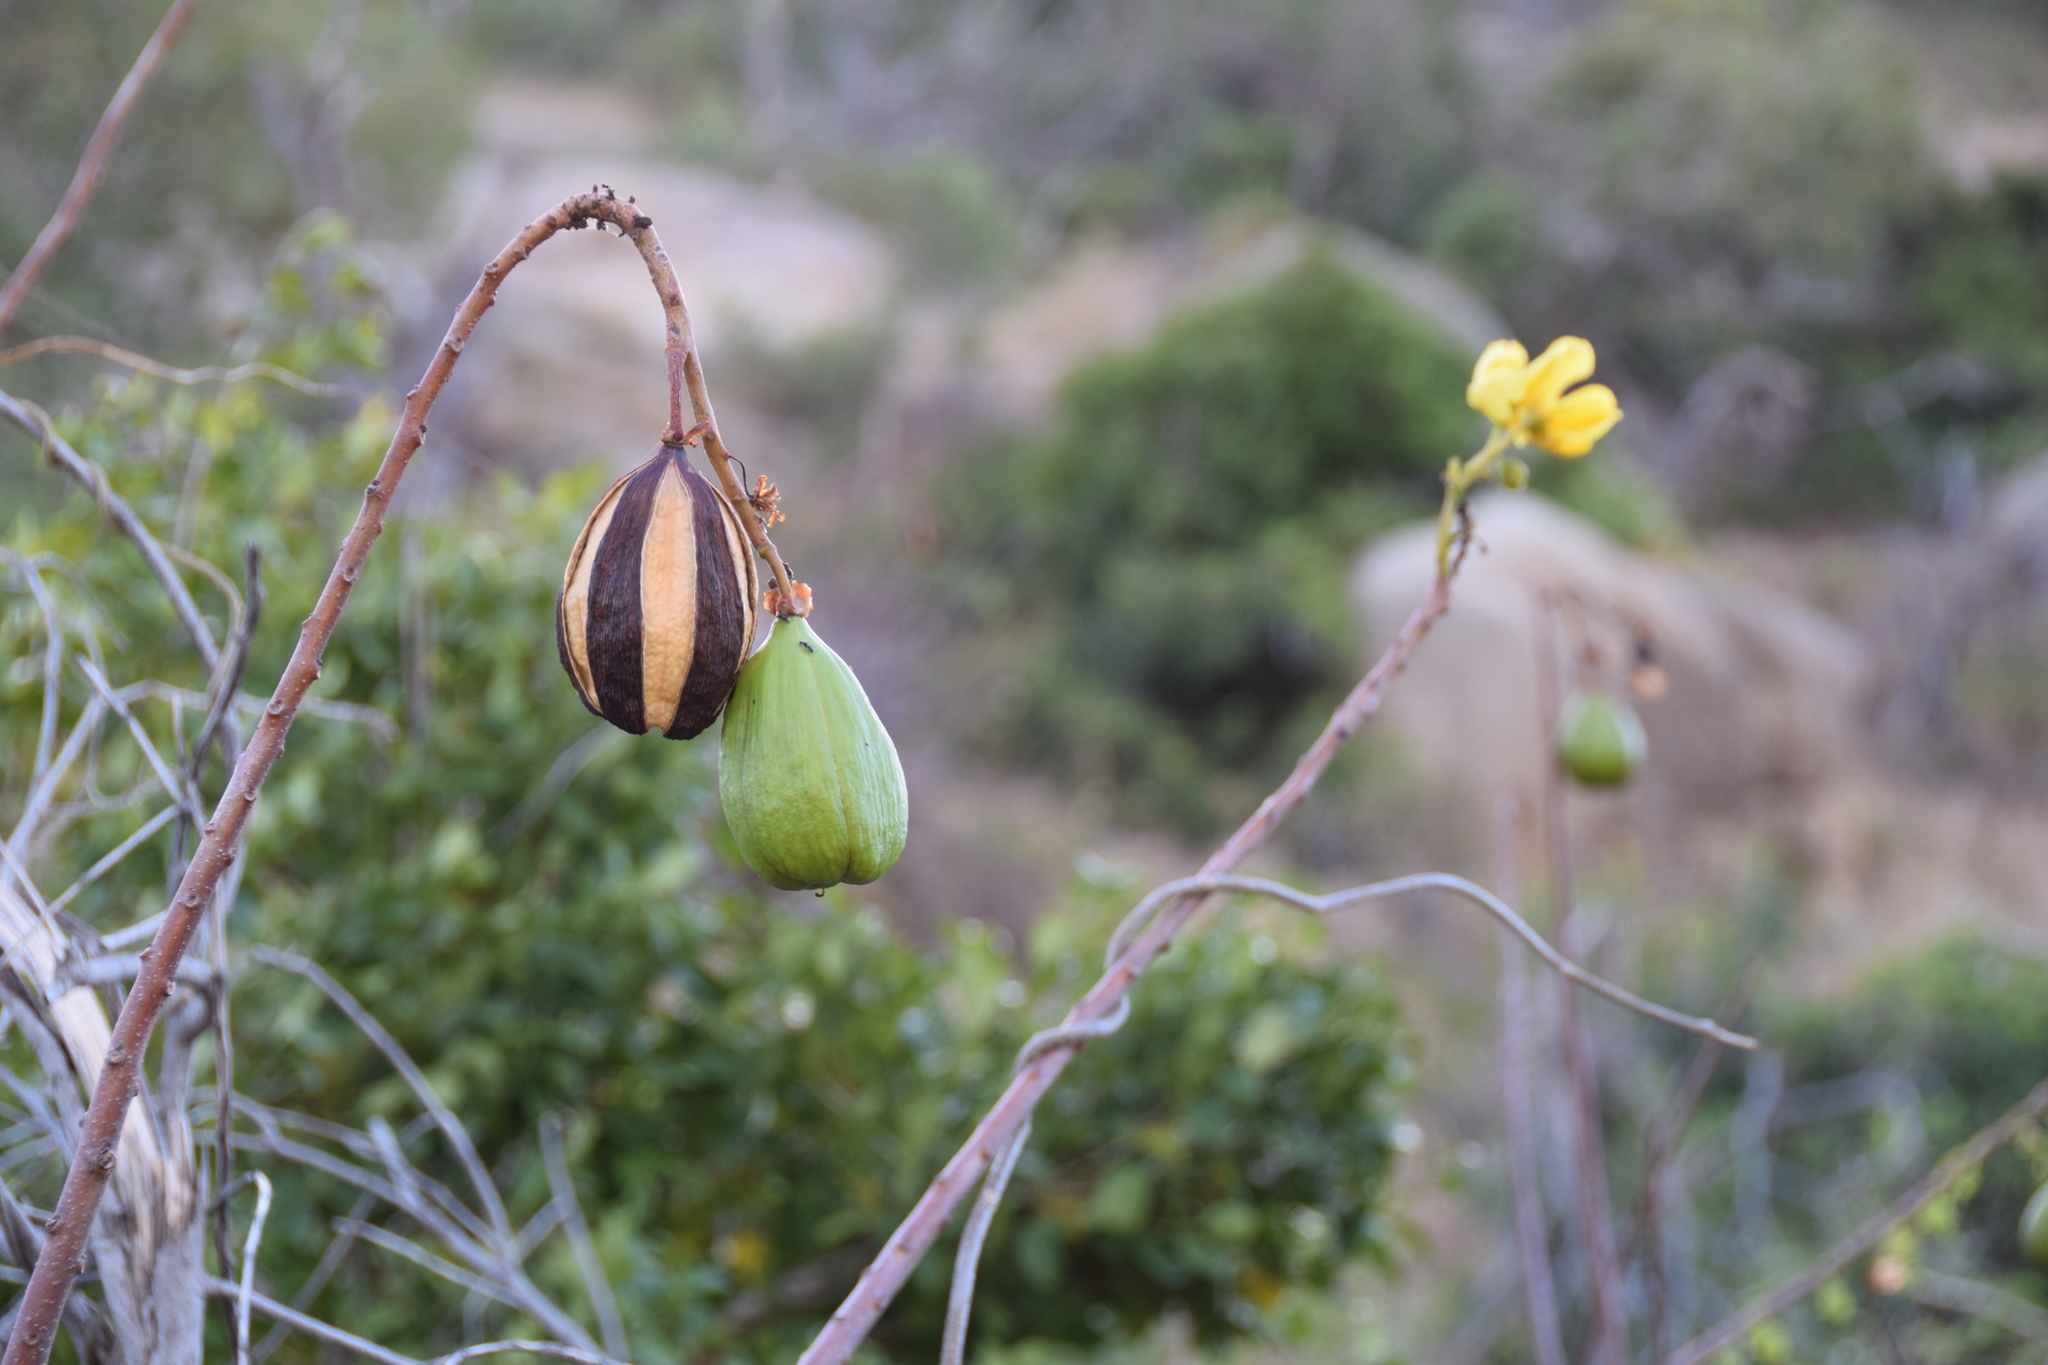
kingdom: Plantae
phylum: Tracheophyta
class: Magnoliopsida
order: Malvales
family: Cochlospermaceae
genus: Cochlospermum
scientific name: Cochlospermum gillivraei
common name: Cottontree
